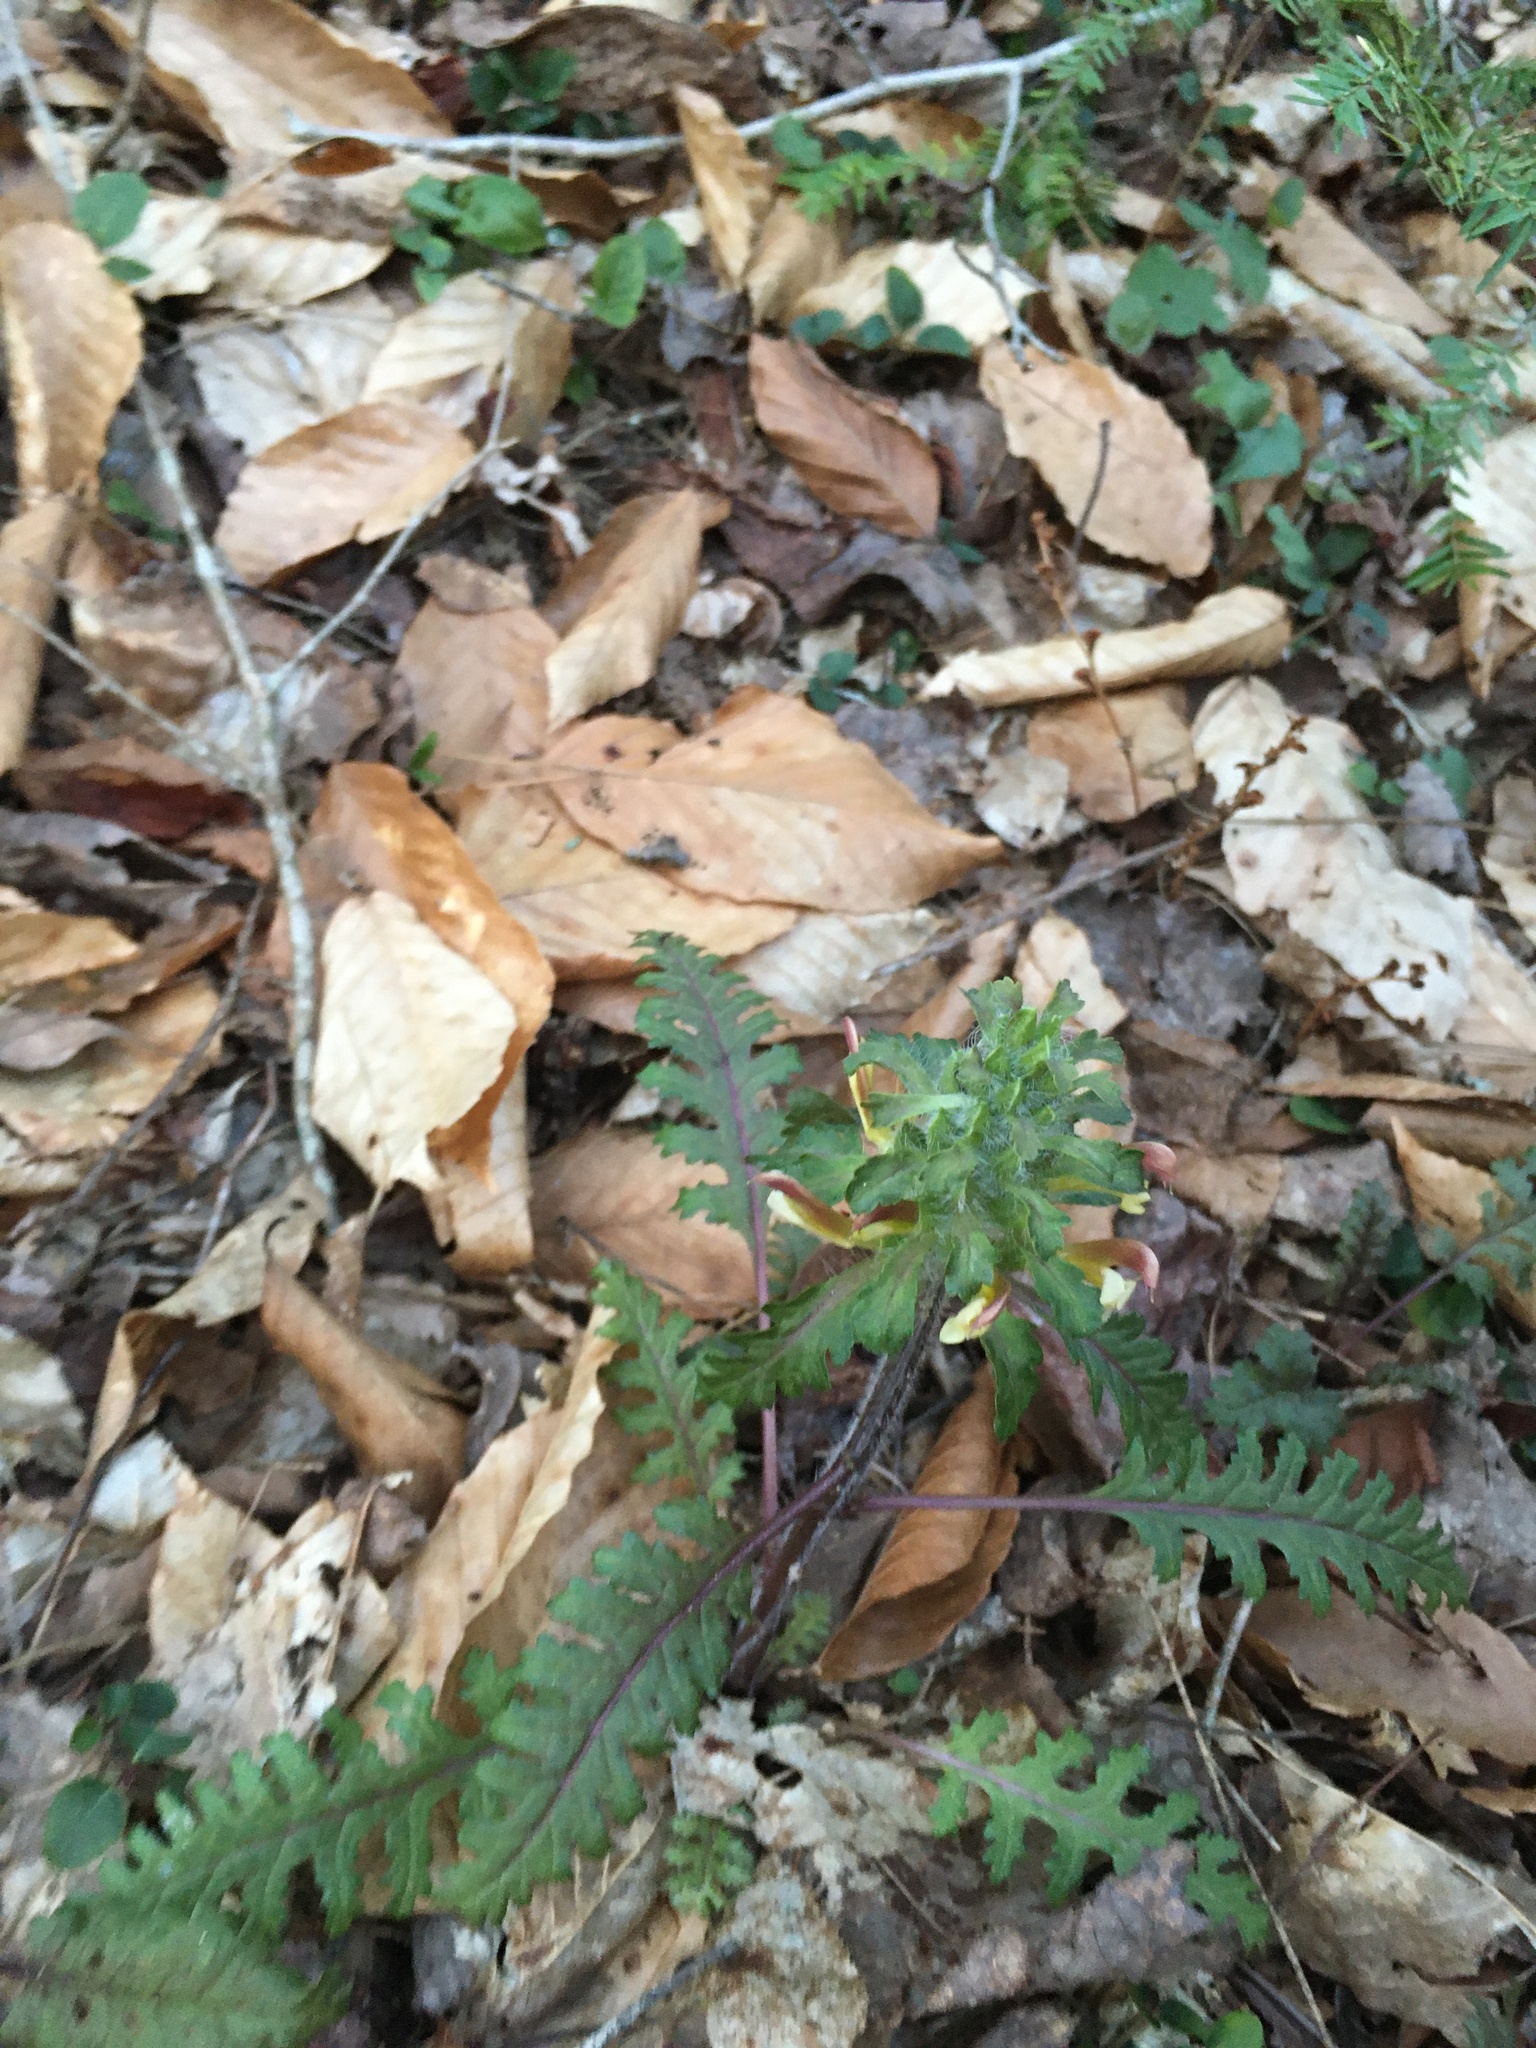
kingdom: Plantae
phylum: Tracheophyta
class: Magnoliopsida
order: Lamiales
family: Orobanchaceae
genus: Pedicularis
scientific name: Pedicularis canadensis
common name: Early lousewort
